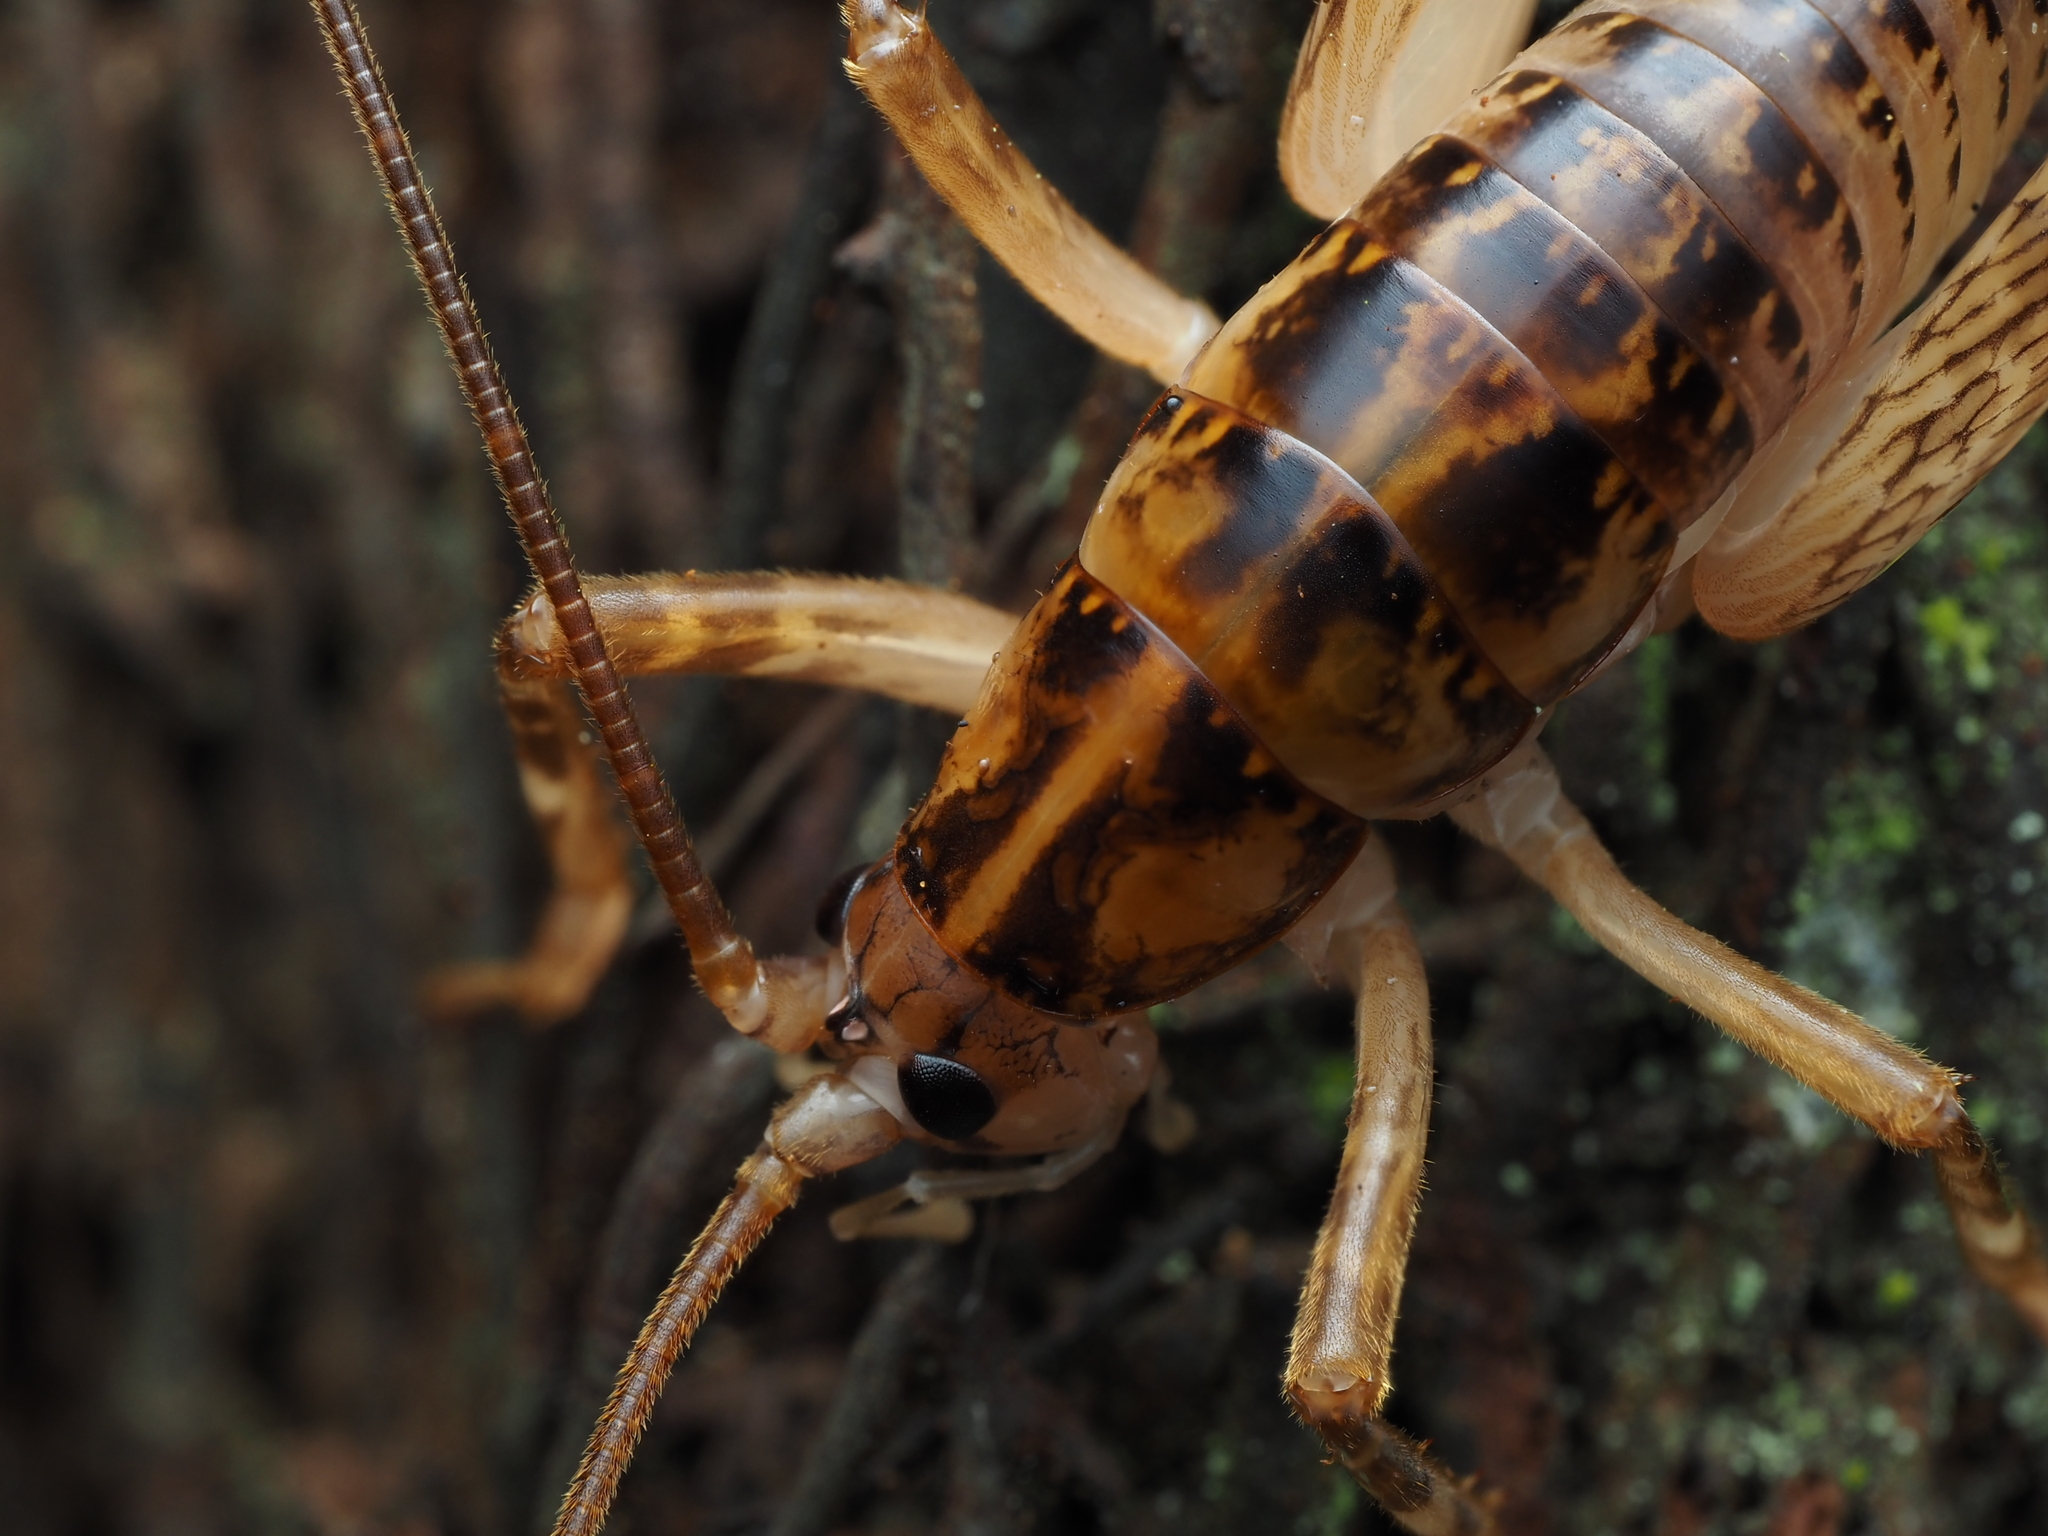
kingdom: Animalia
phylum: Arthropoda
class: Insecta
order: Orthoptera
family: Rhaphidophoridae
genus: Talitropsis
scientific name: Talitropsis sedilloti
